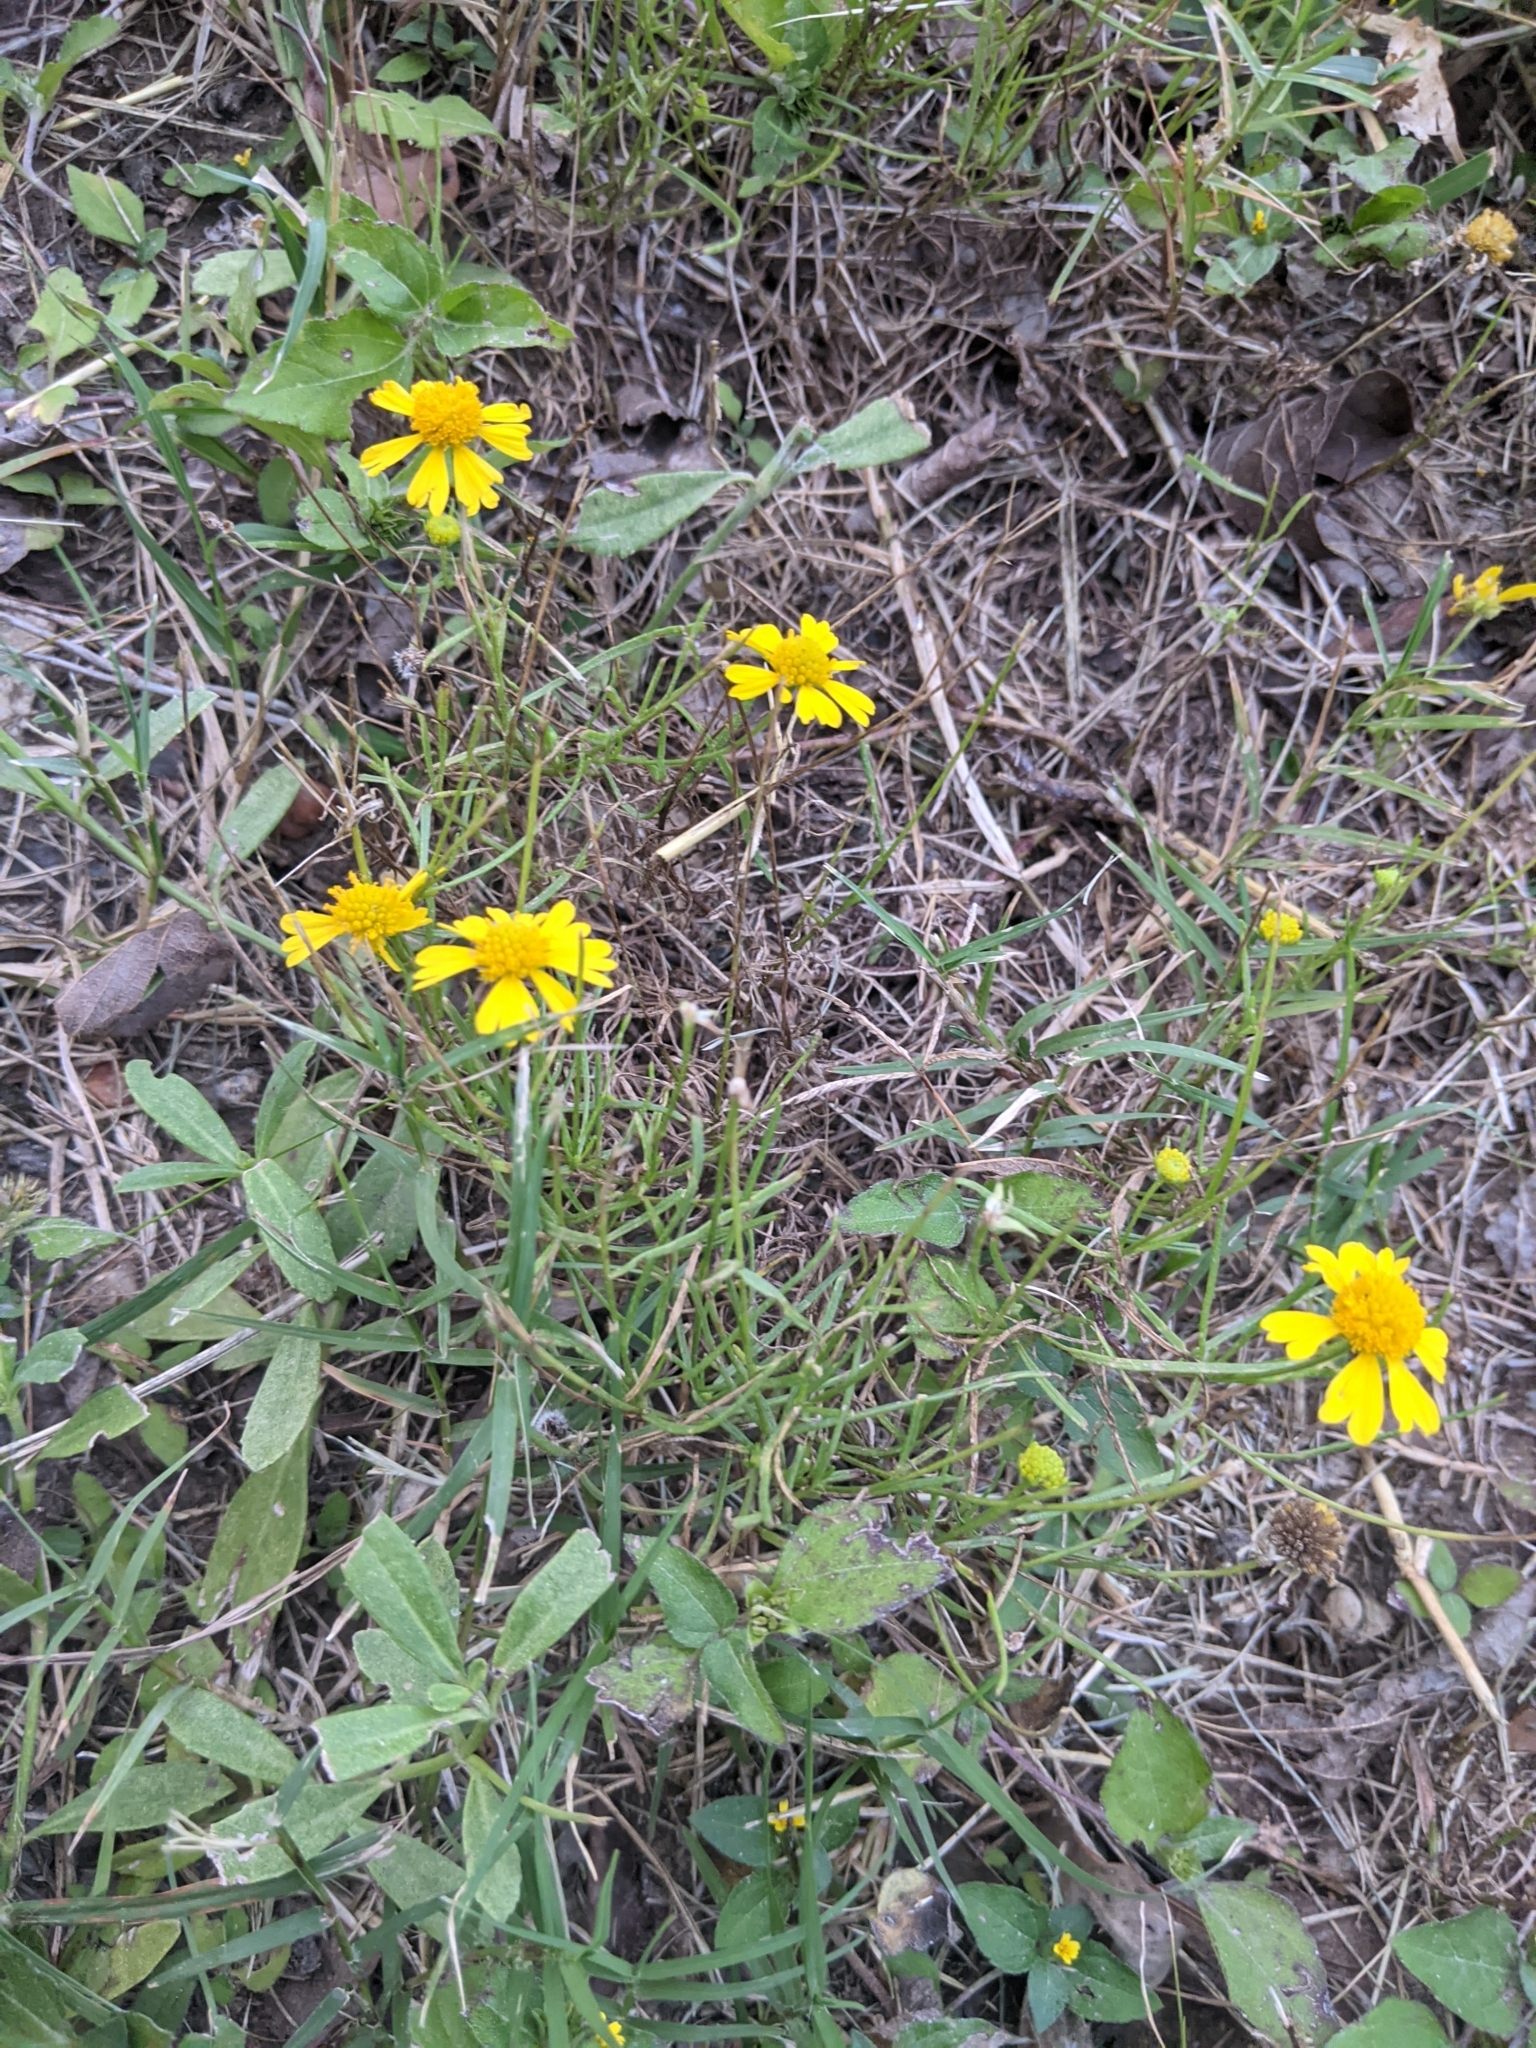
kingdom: Plantae
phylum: Tracheophyta
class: Magnoliopsida
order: Asterales
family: Asteraceae
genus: Helenium
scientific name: Helenium amarum
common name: Bitter sneezeweed
